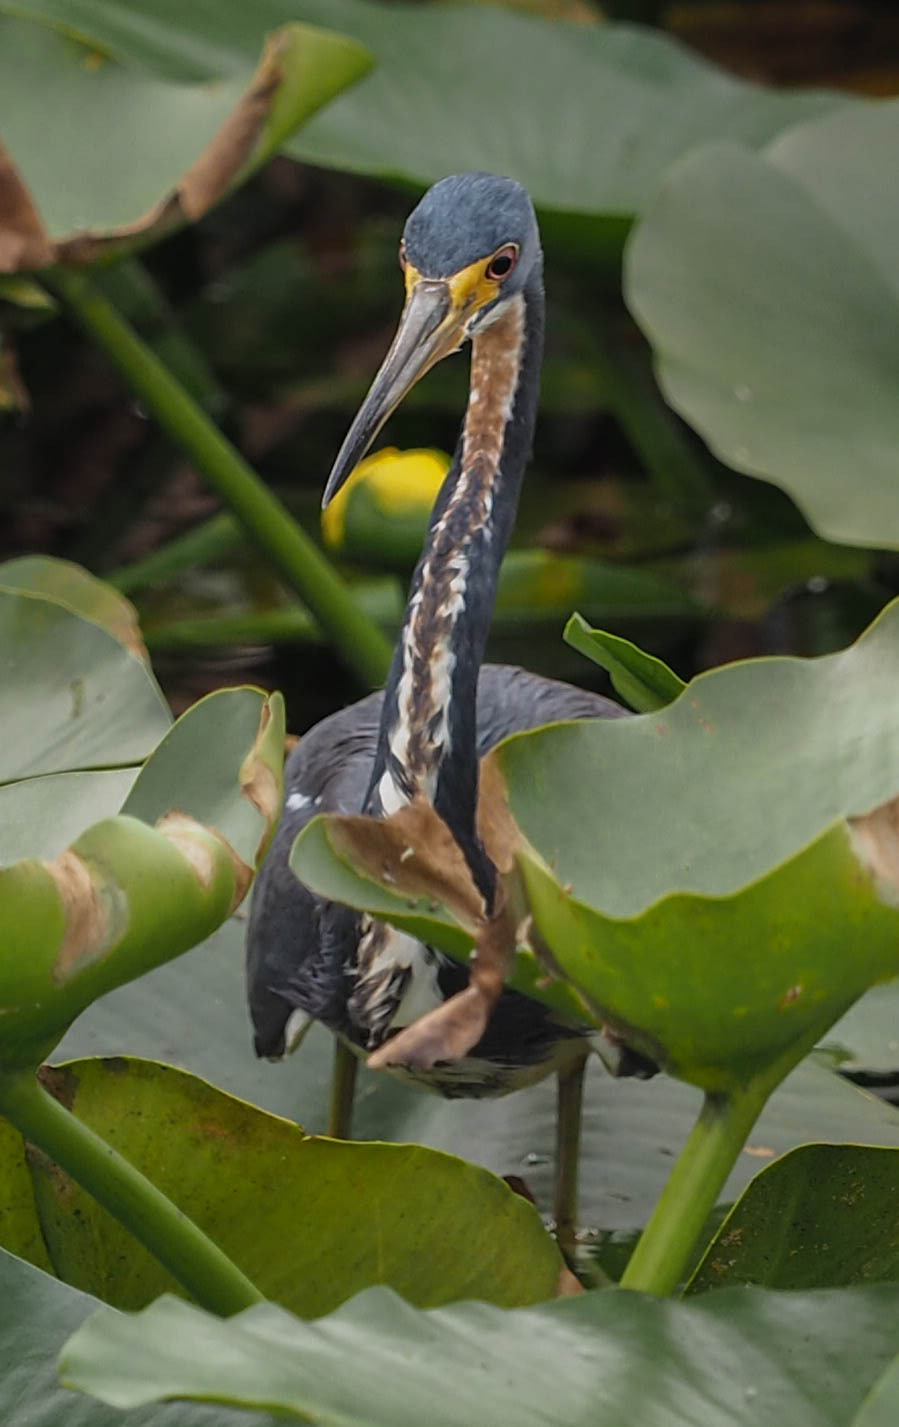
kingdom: Animalia
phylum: Chordata
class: Aves
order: Pelecaniformes
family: Ardeidae
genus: Egretta
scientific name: Egretta tricolor
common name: Tricolored heron
